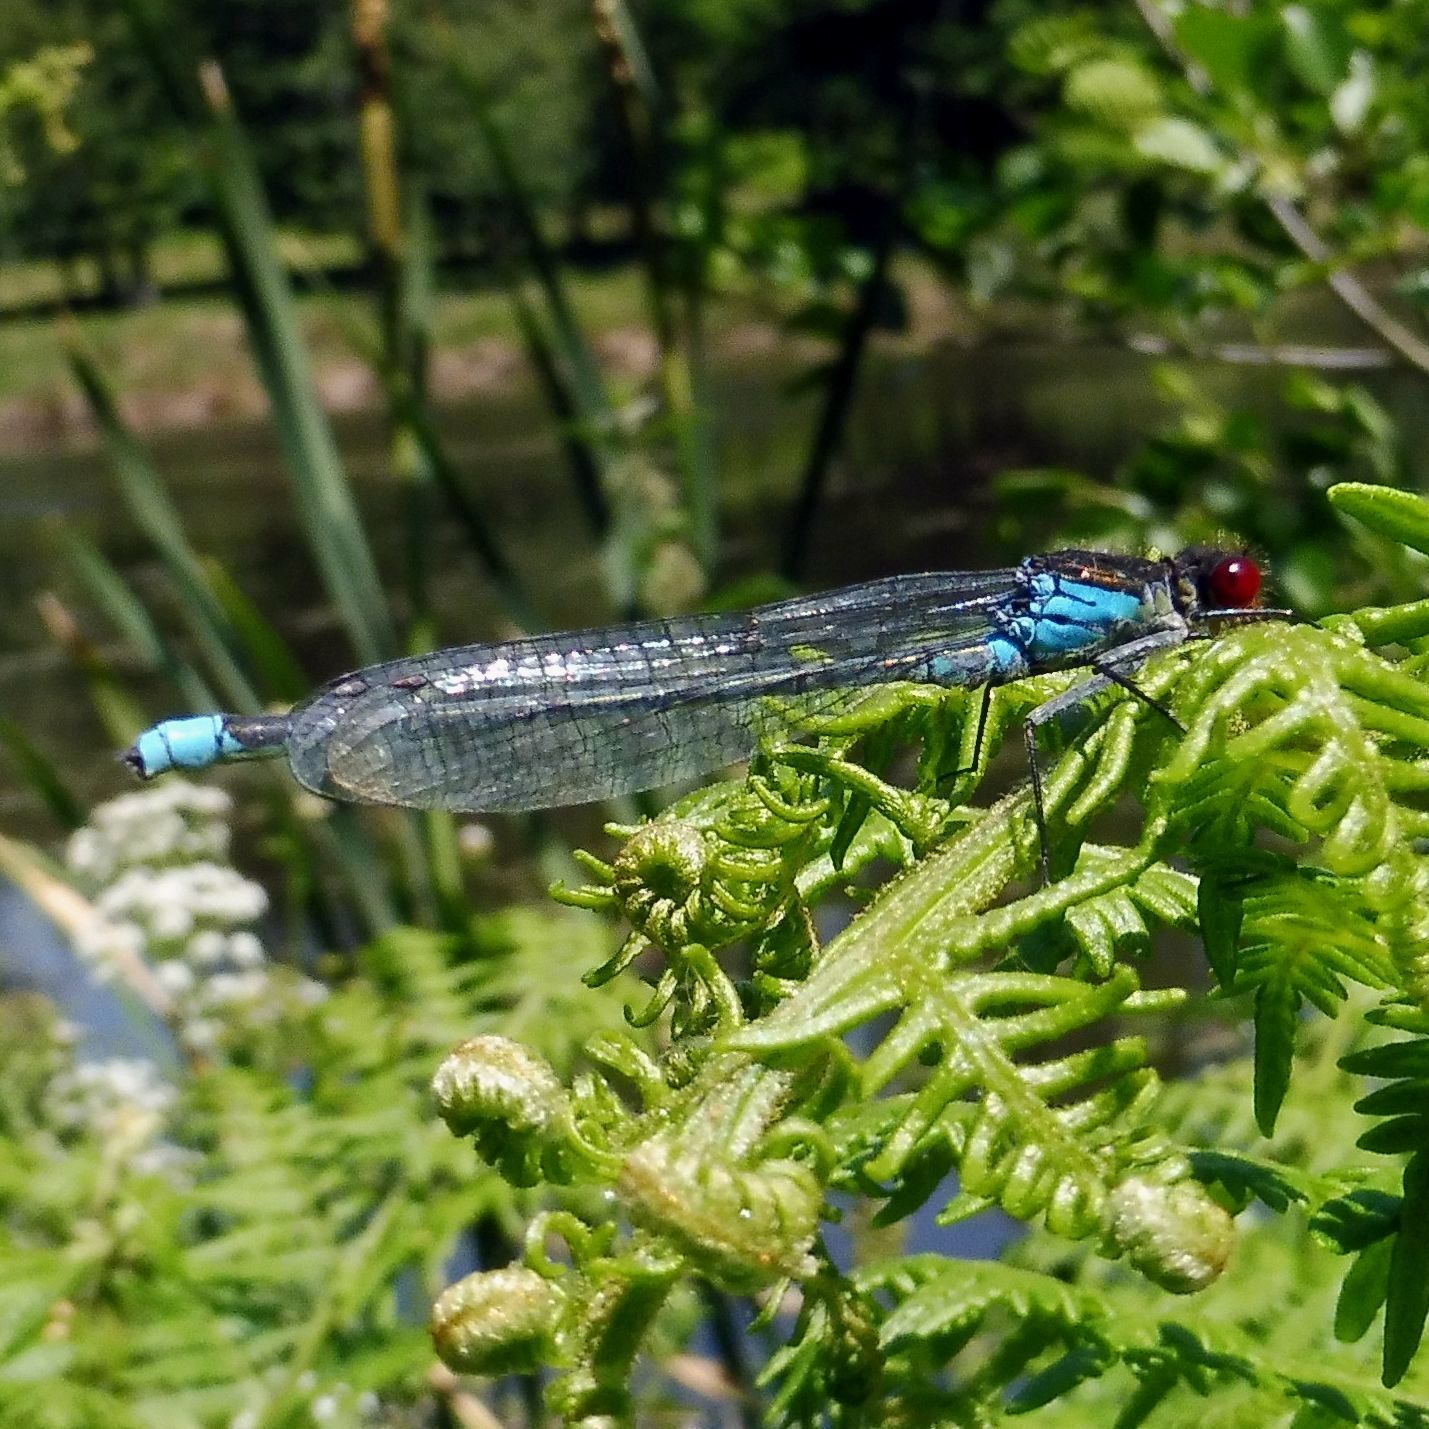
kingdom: Animalia
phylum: Arthropoda
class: Insecta
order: Odonata
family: Coenagrionidae
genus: Erythromma
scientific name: Erythromma najas
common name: Red-eyed damselfly
